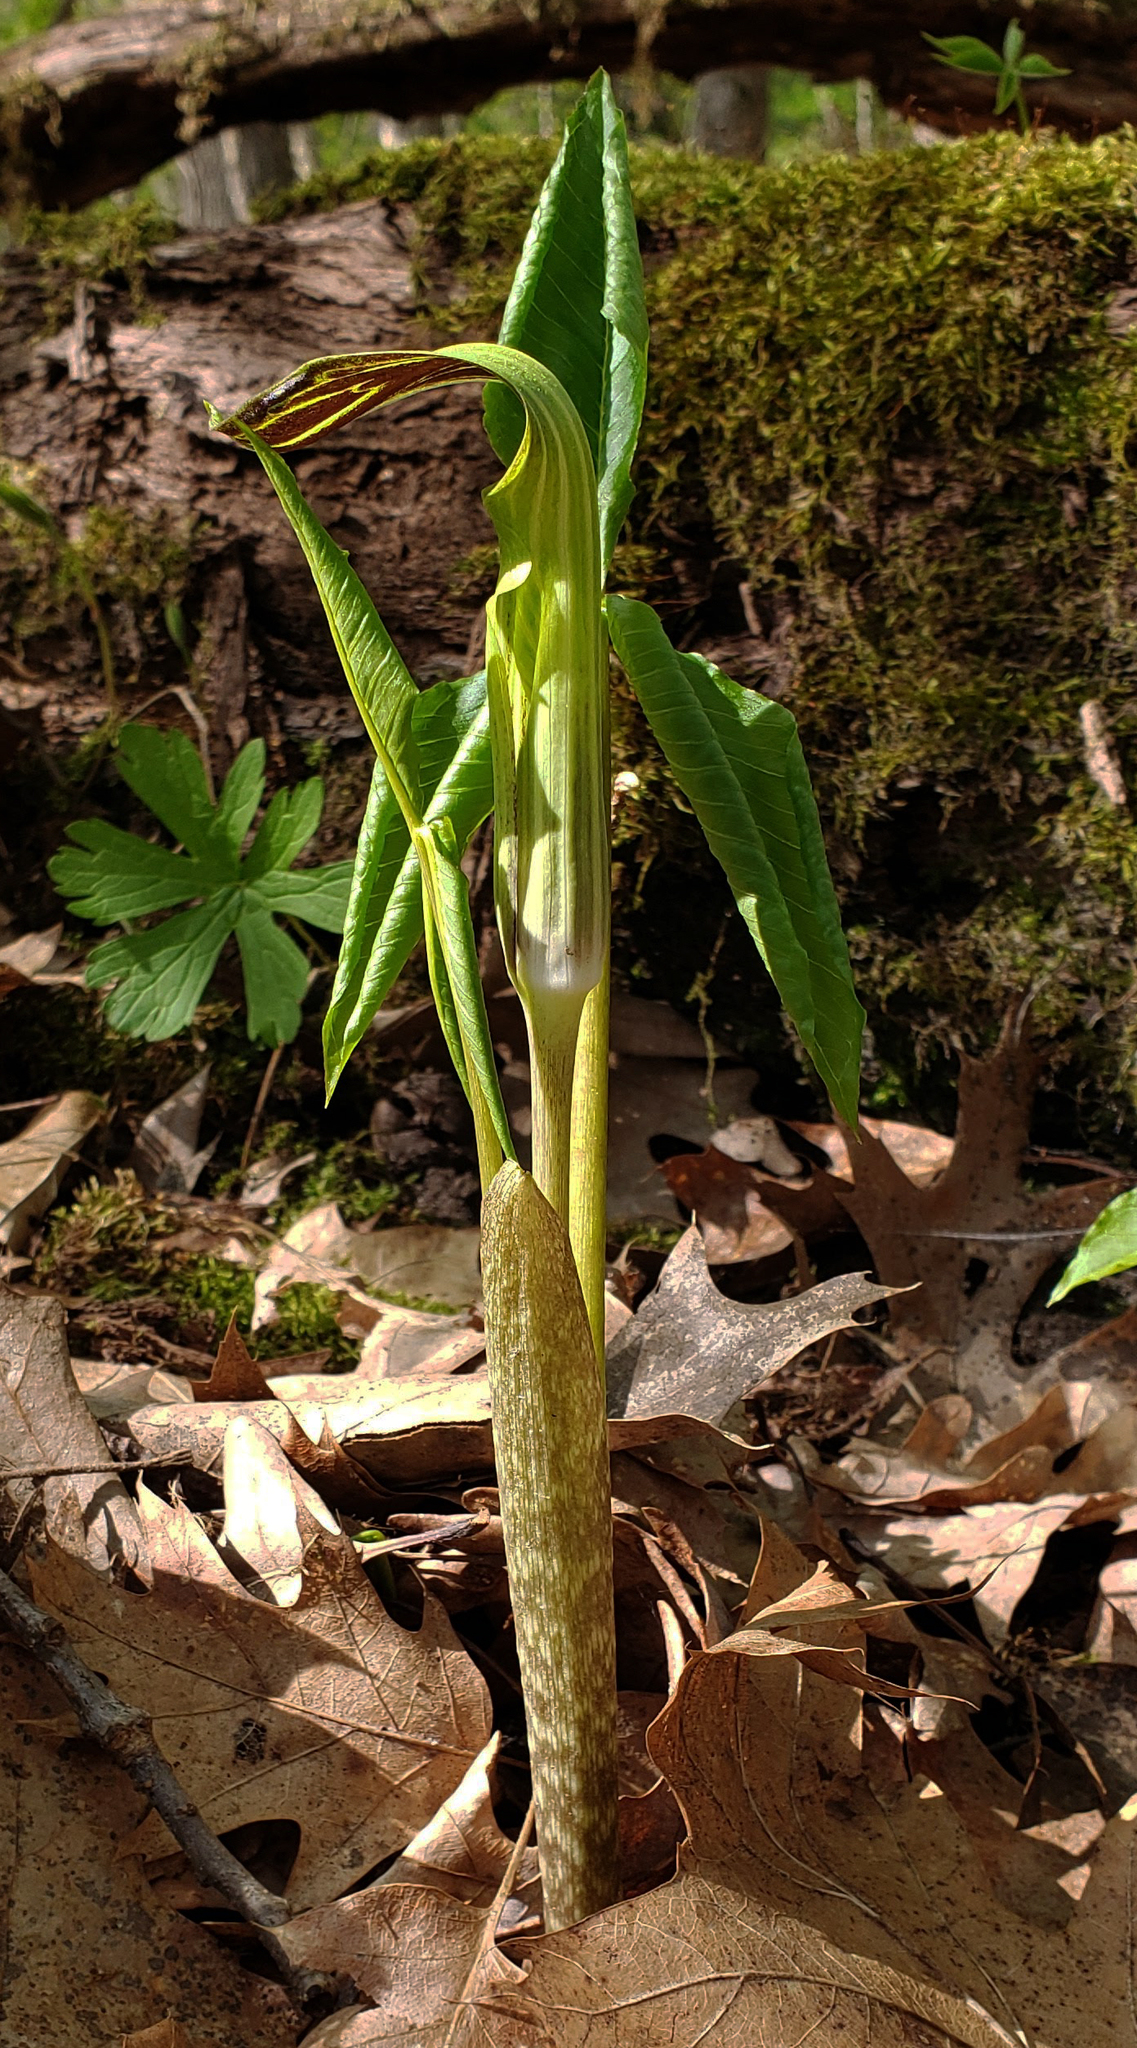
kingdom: Plantae
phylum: Tracheophyta
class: Liliopsida
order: Alismatales
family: Araceae
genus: Arisaema
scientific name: Arisaema triphyllum
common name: Jack-in-the-pulpit
